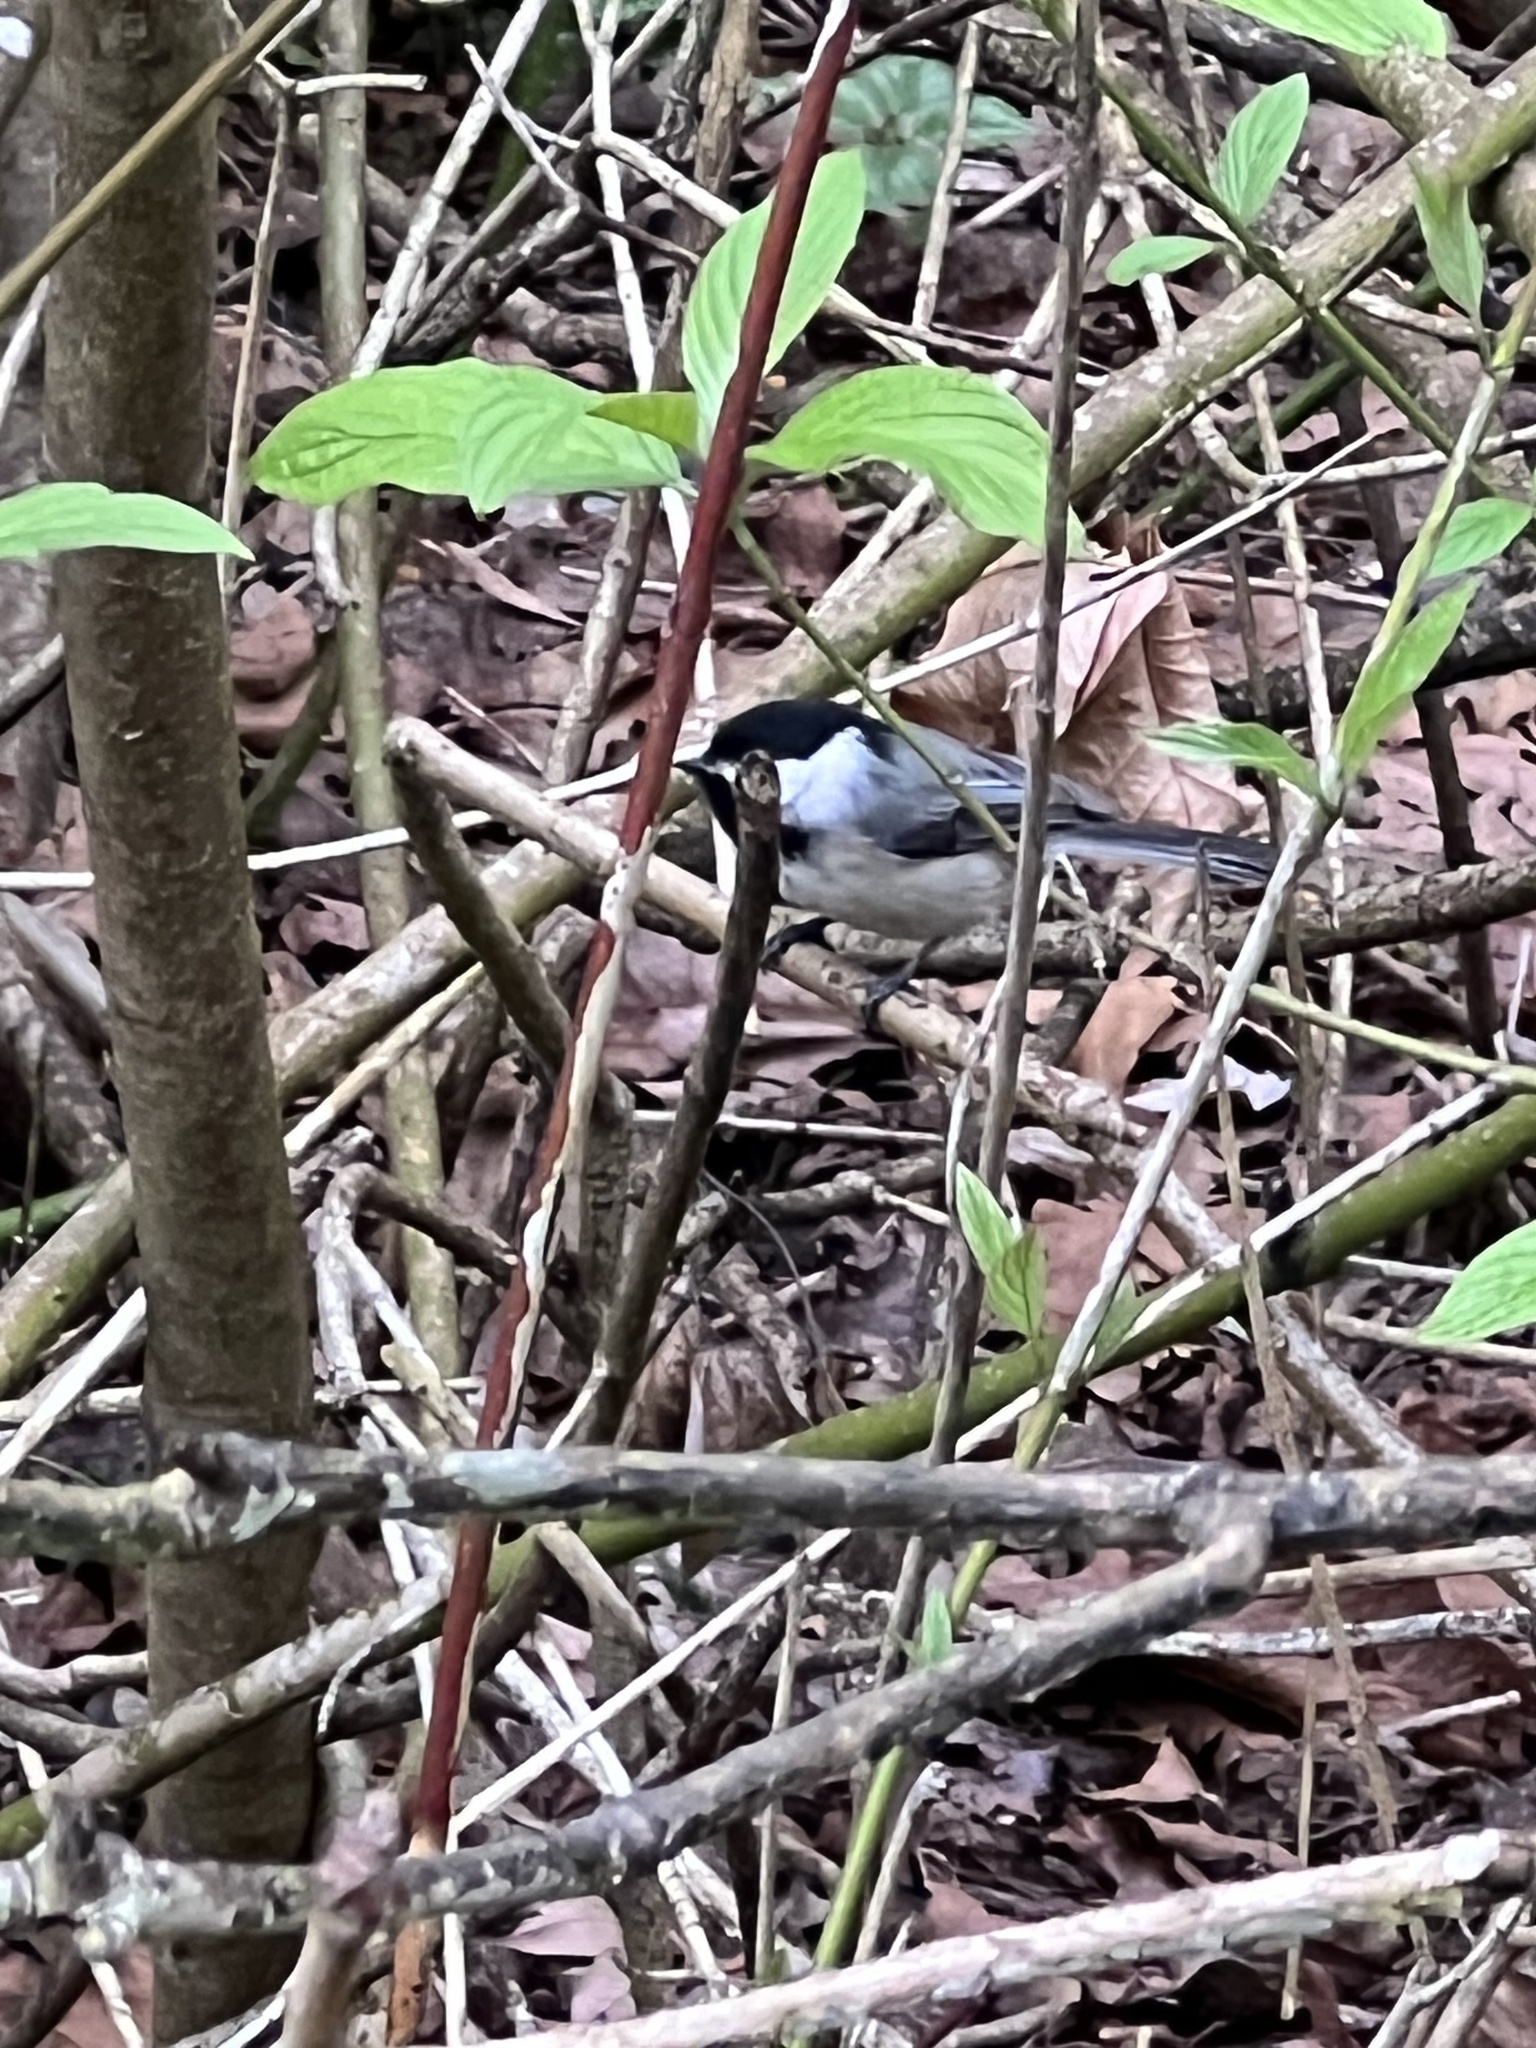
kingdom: Animalia
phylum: Chordata
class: Aves
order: Passeriformes
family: Paridae
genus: Poecile
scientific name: Poecile atricapillus
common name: Black-capped chickadee
